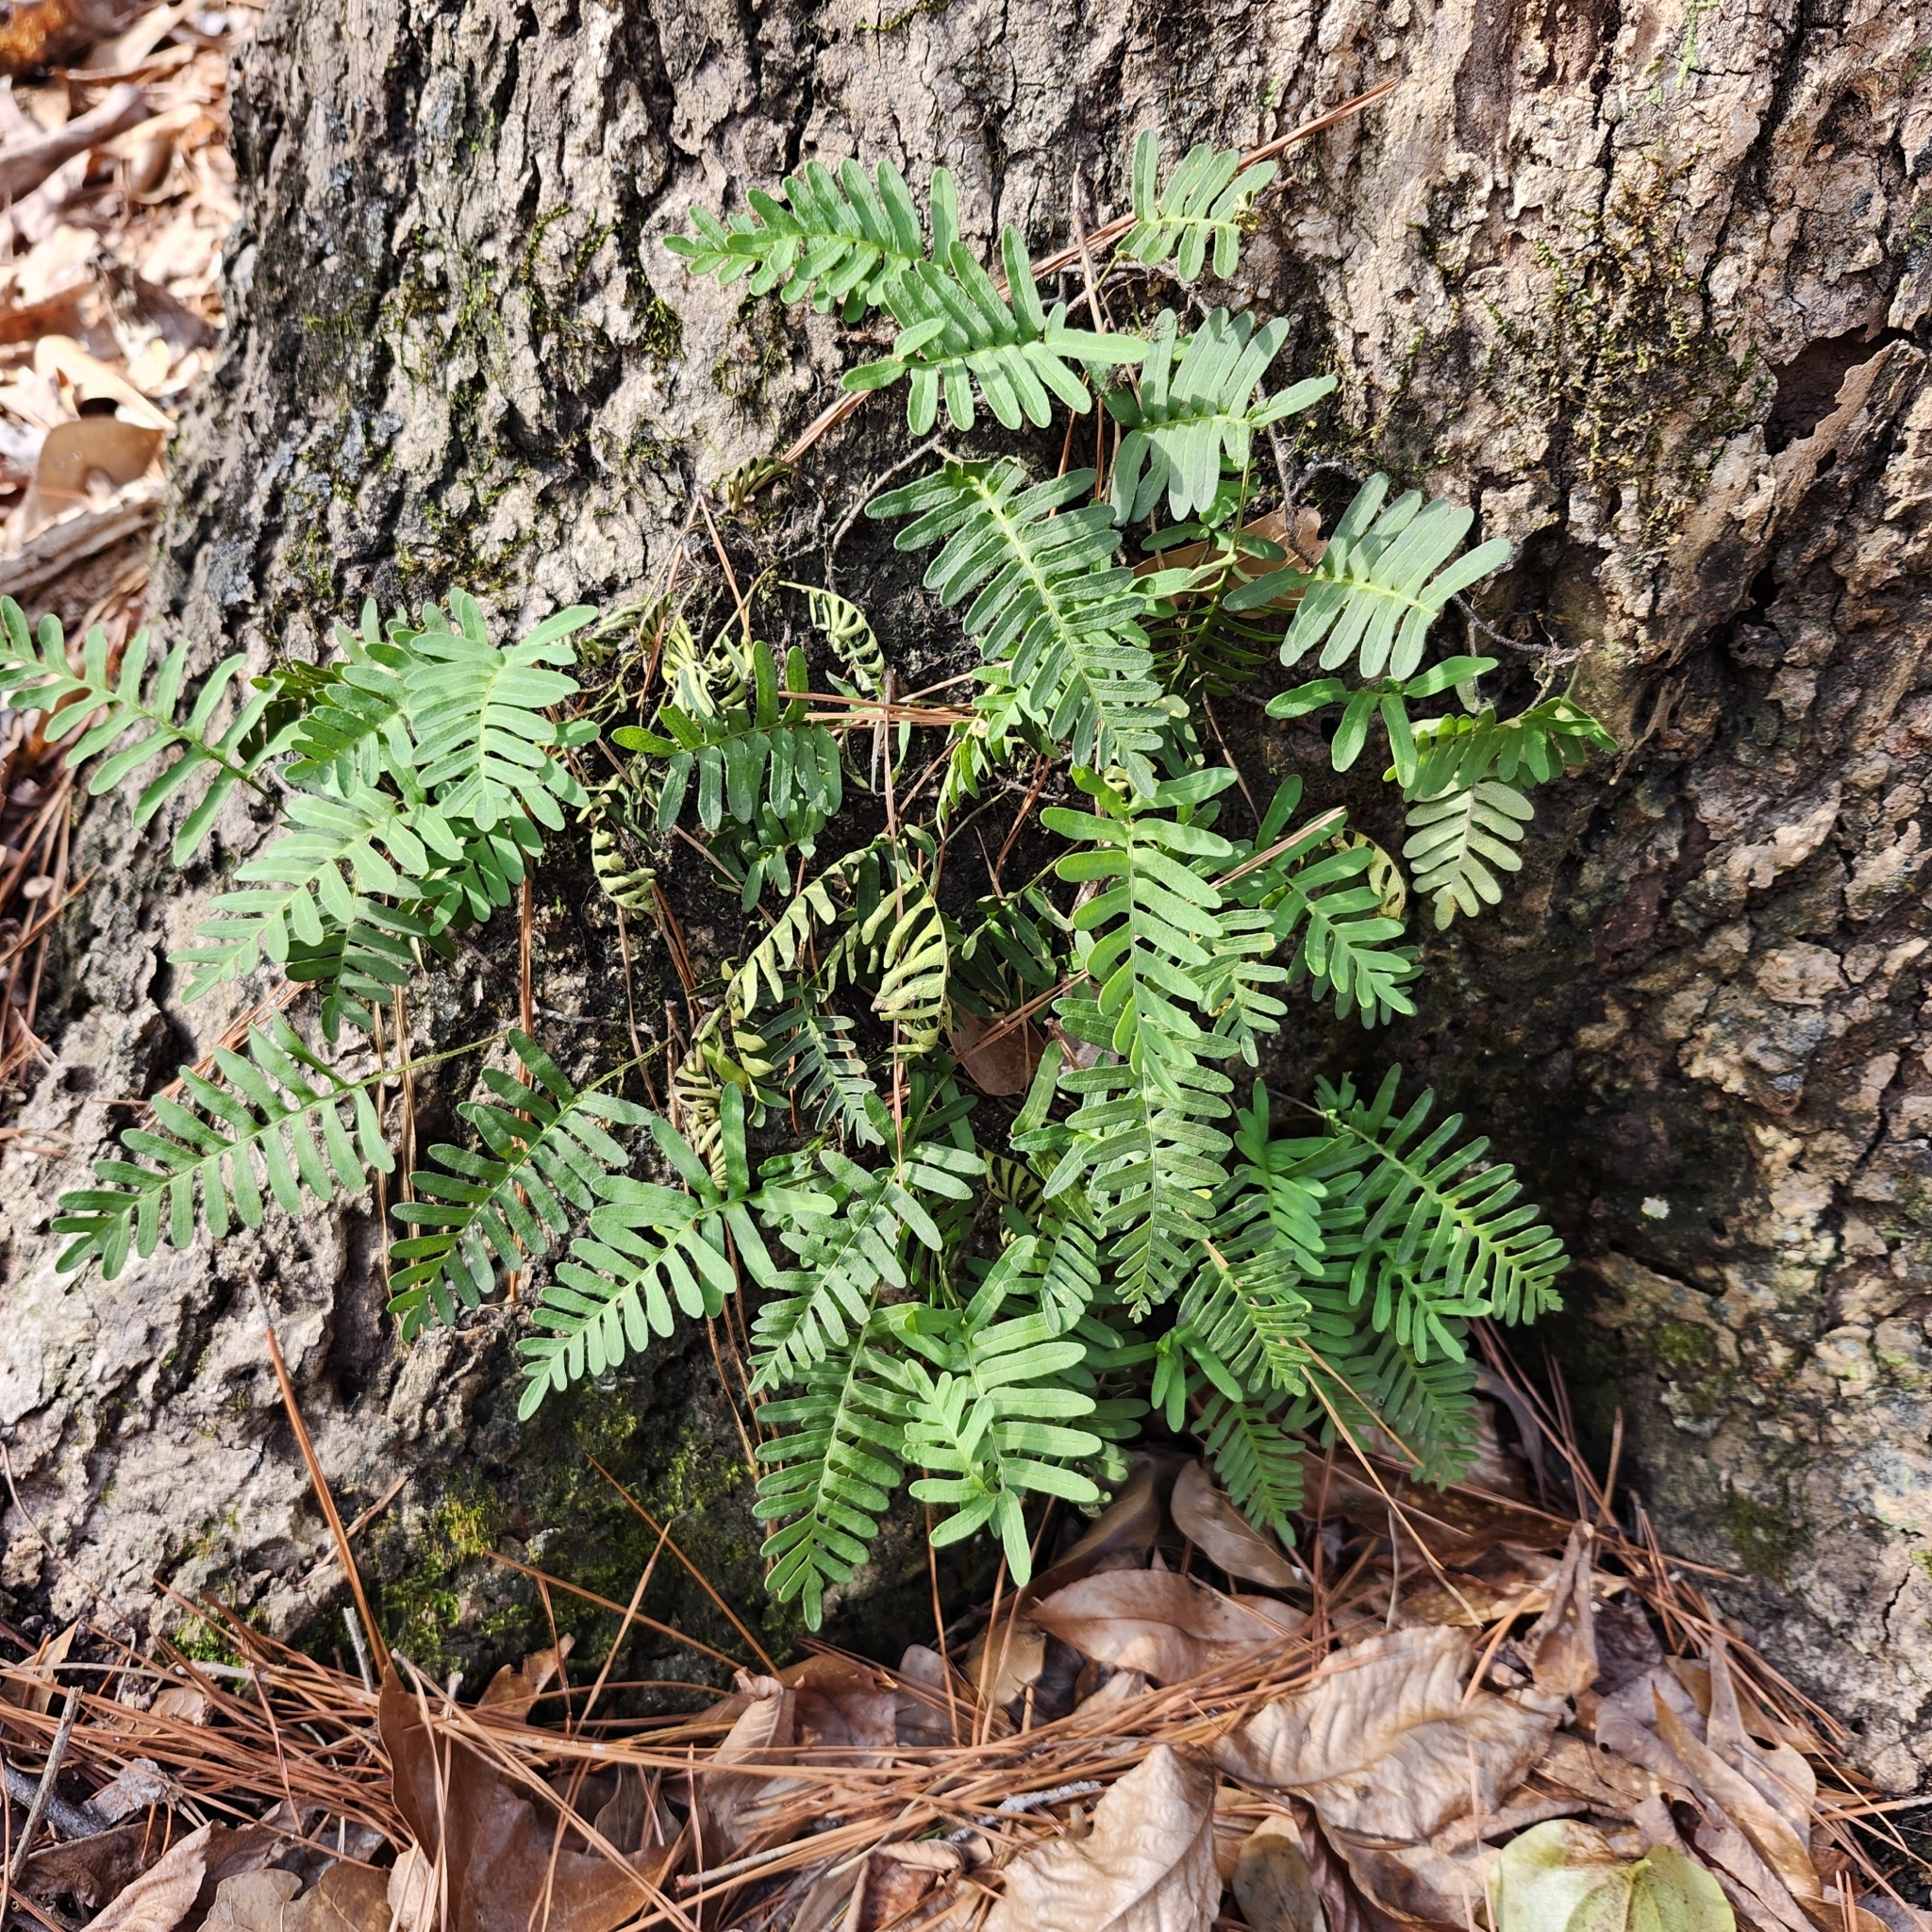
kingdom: Plantae
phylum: Tracheophyta
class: Polypodiopsida
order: Polypodiales
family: Polypodiaceae
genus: Pleopeltis
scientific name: Pleopeltis michauxiana
